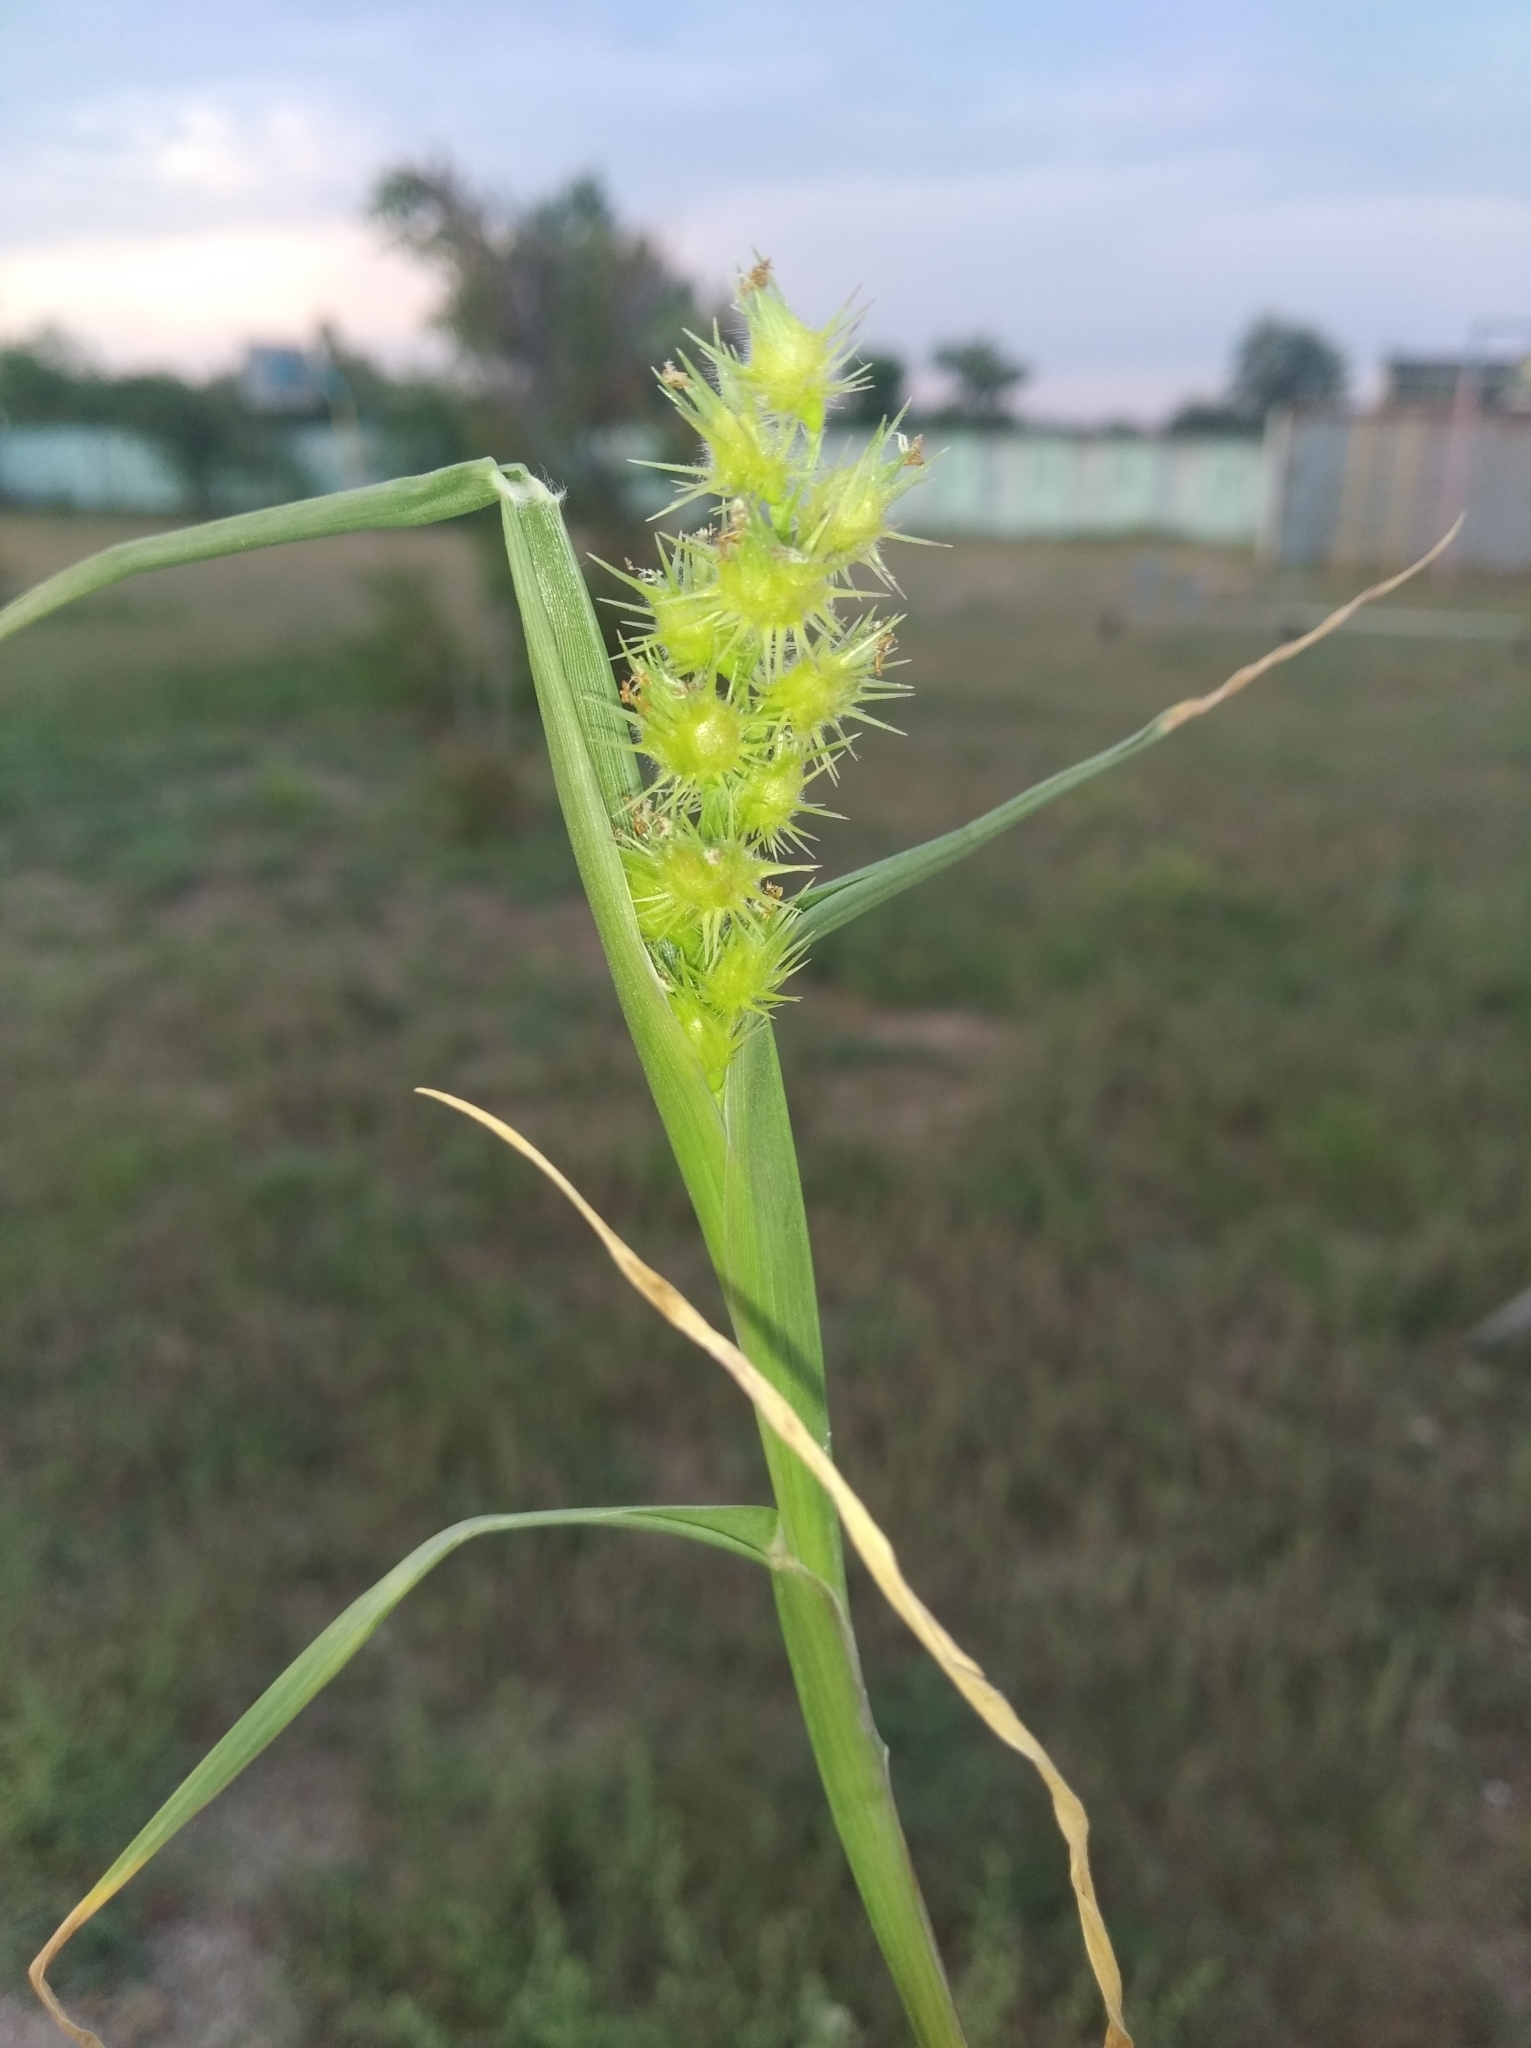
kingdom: Plantae
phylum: Tracheophyta
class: Liliopsida
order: Poales
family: Poaceae
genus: Cenchrus
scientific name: Cenchrus longispinus
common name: Mat sandbur
